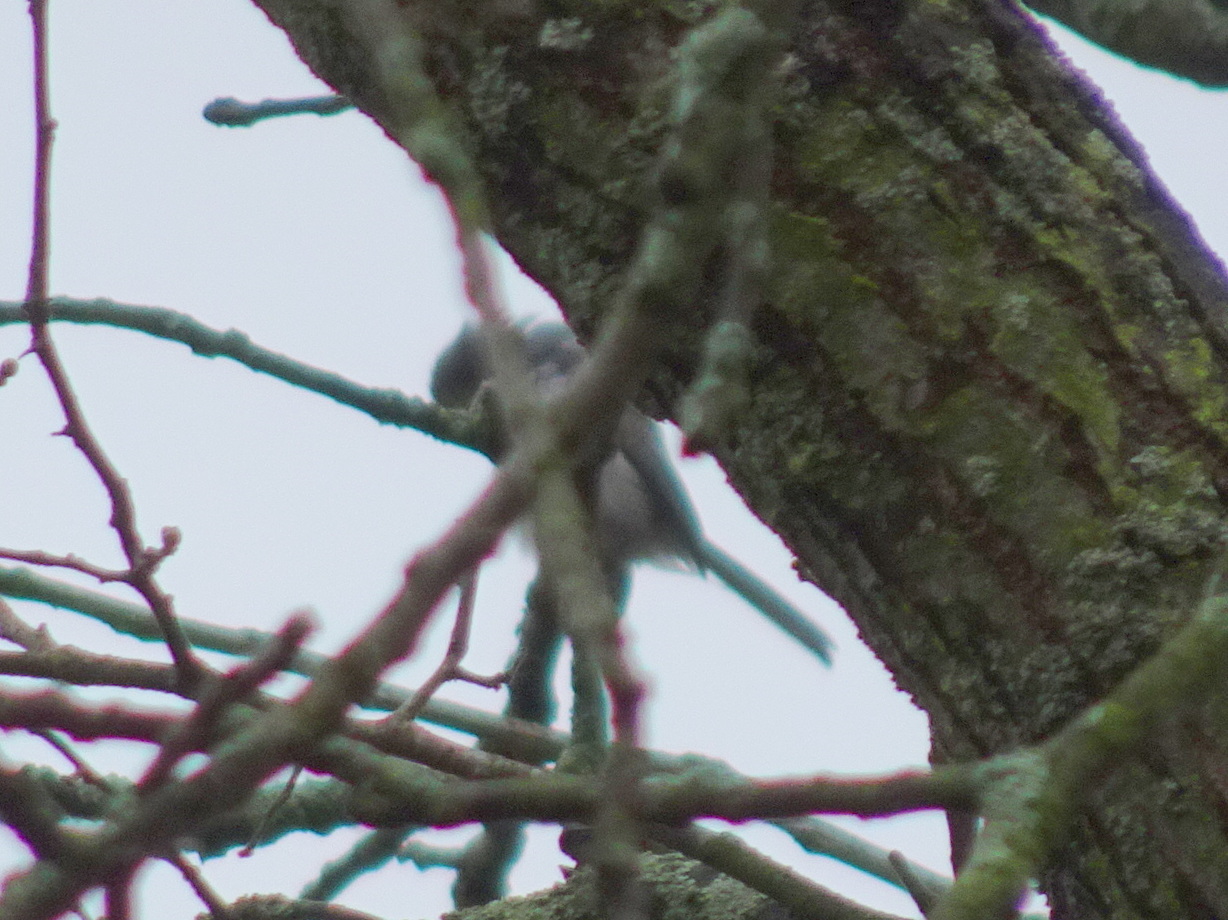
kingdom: Animalia
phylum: Chordata
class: Aves
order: Passeriformes
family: Polioptilidae
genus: Polioptila
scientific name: Polioptila caerulea
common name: Blue-gray gnatcatcher
